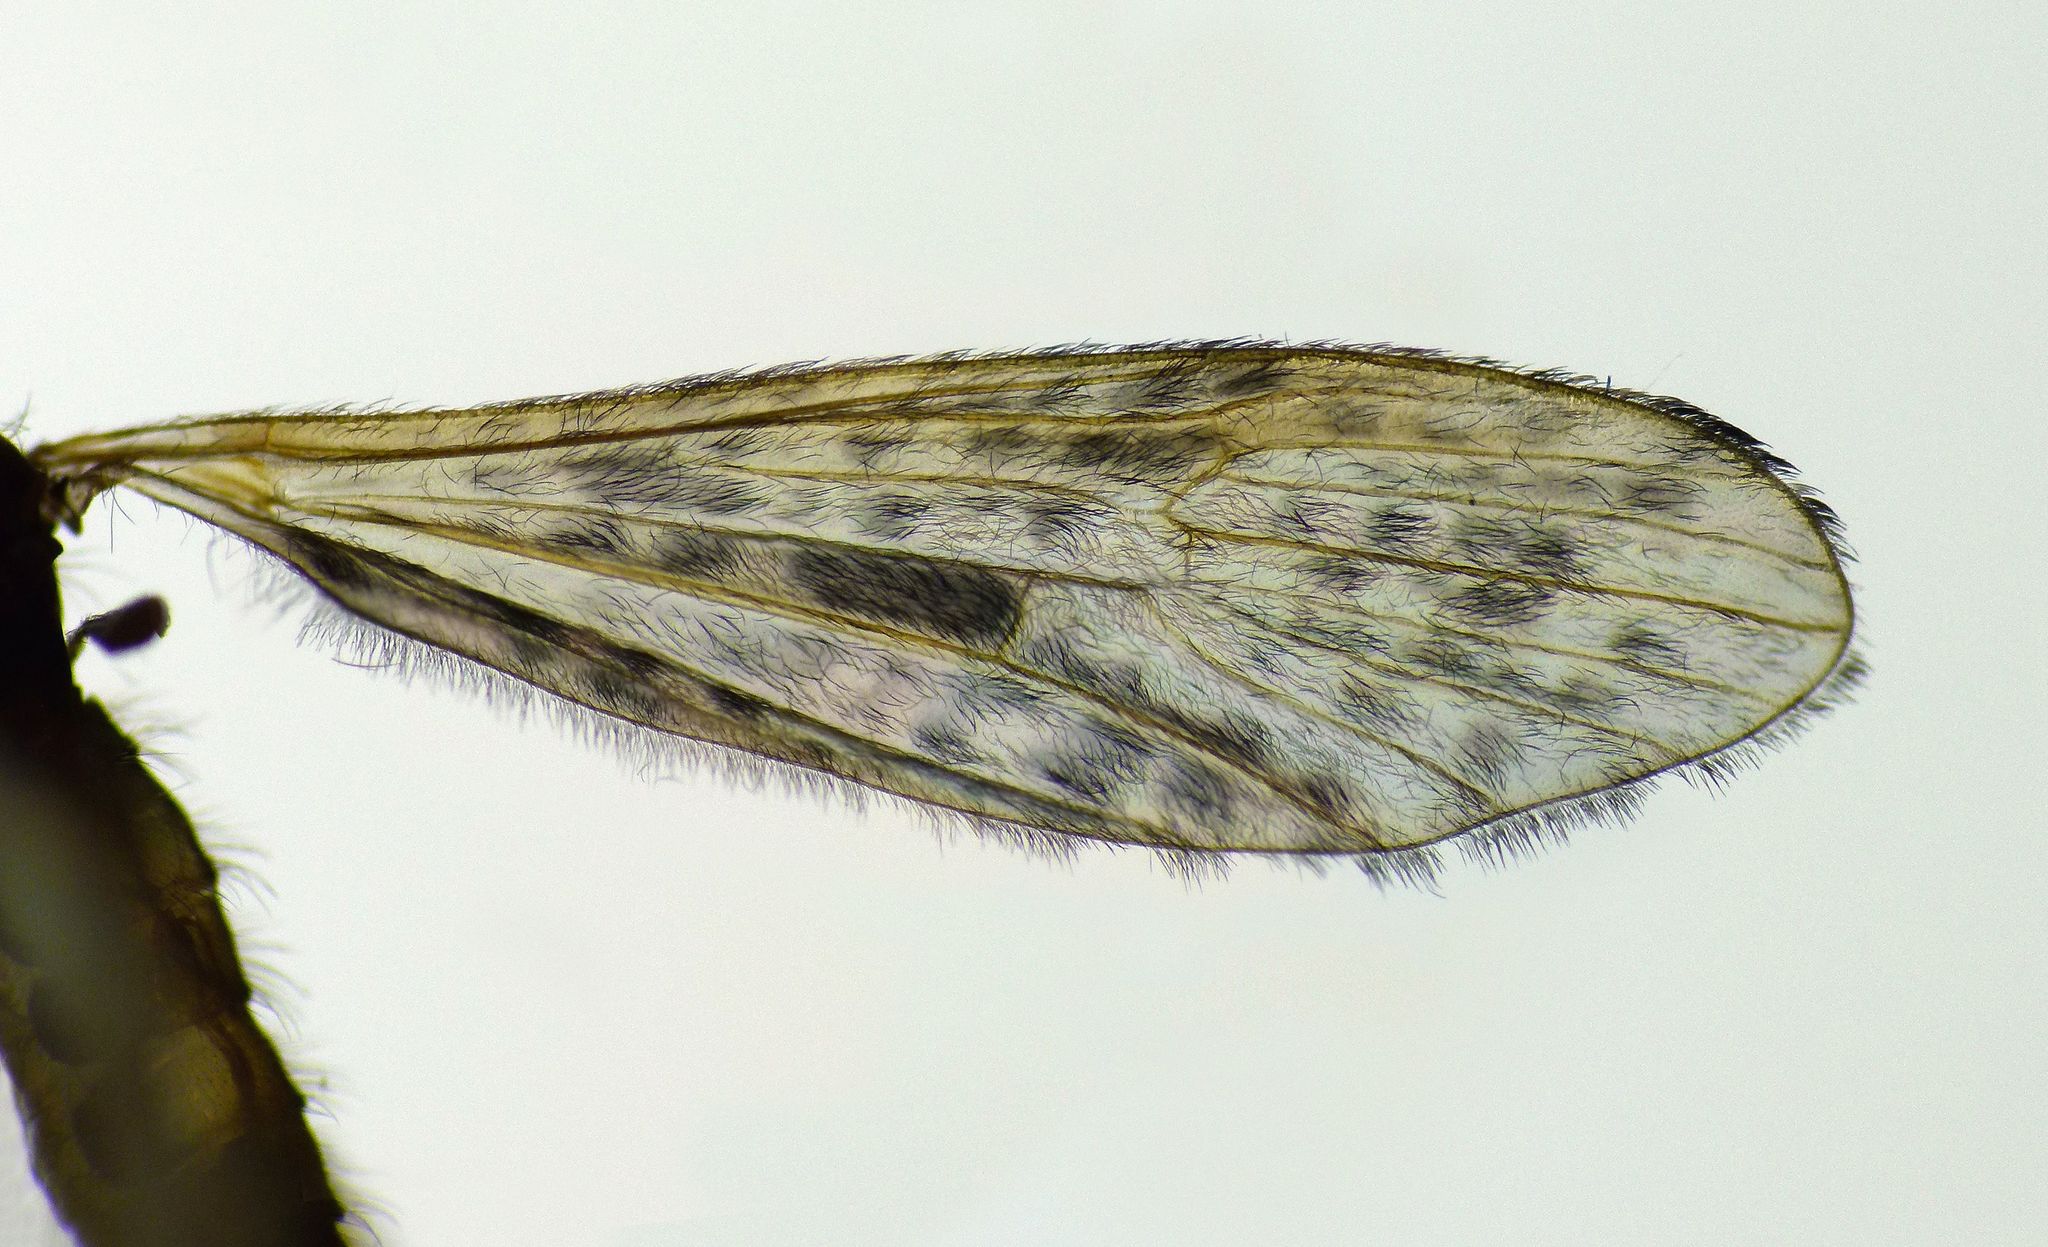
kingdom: Animalia
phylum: Arthropoda
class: Insecta
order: Diptera
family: Limoniidae
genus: Amphineurus
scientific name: Amphineurus hudsoni
